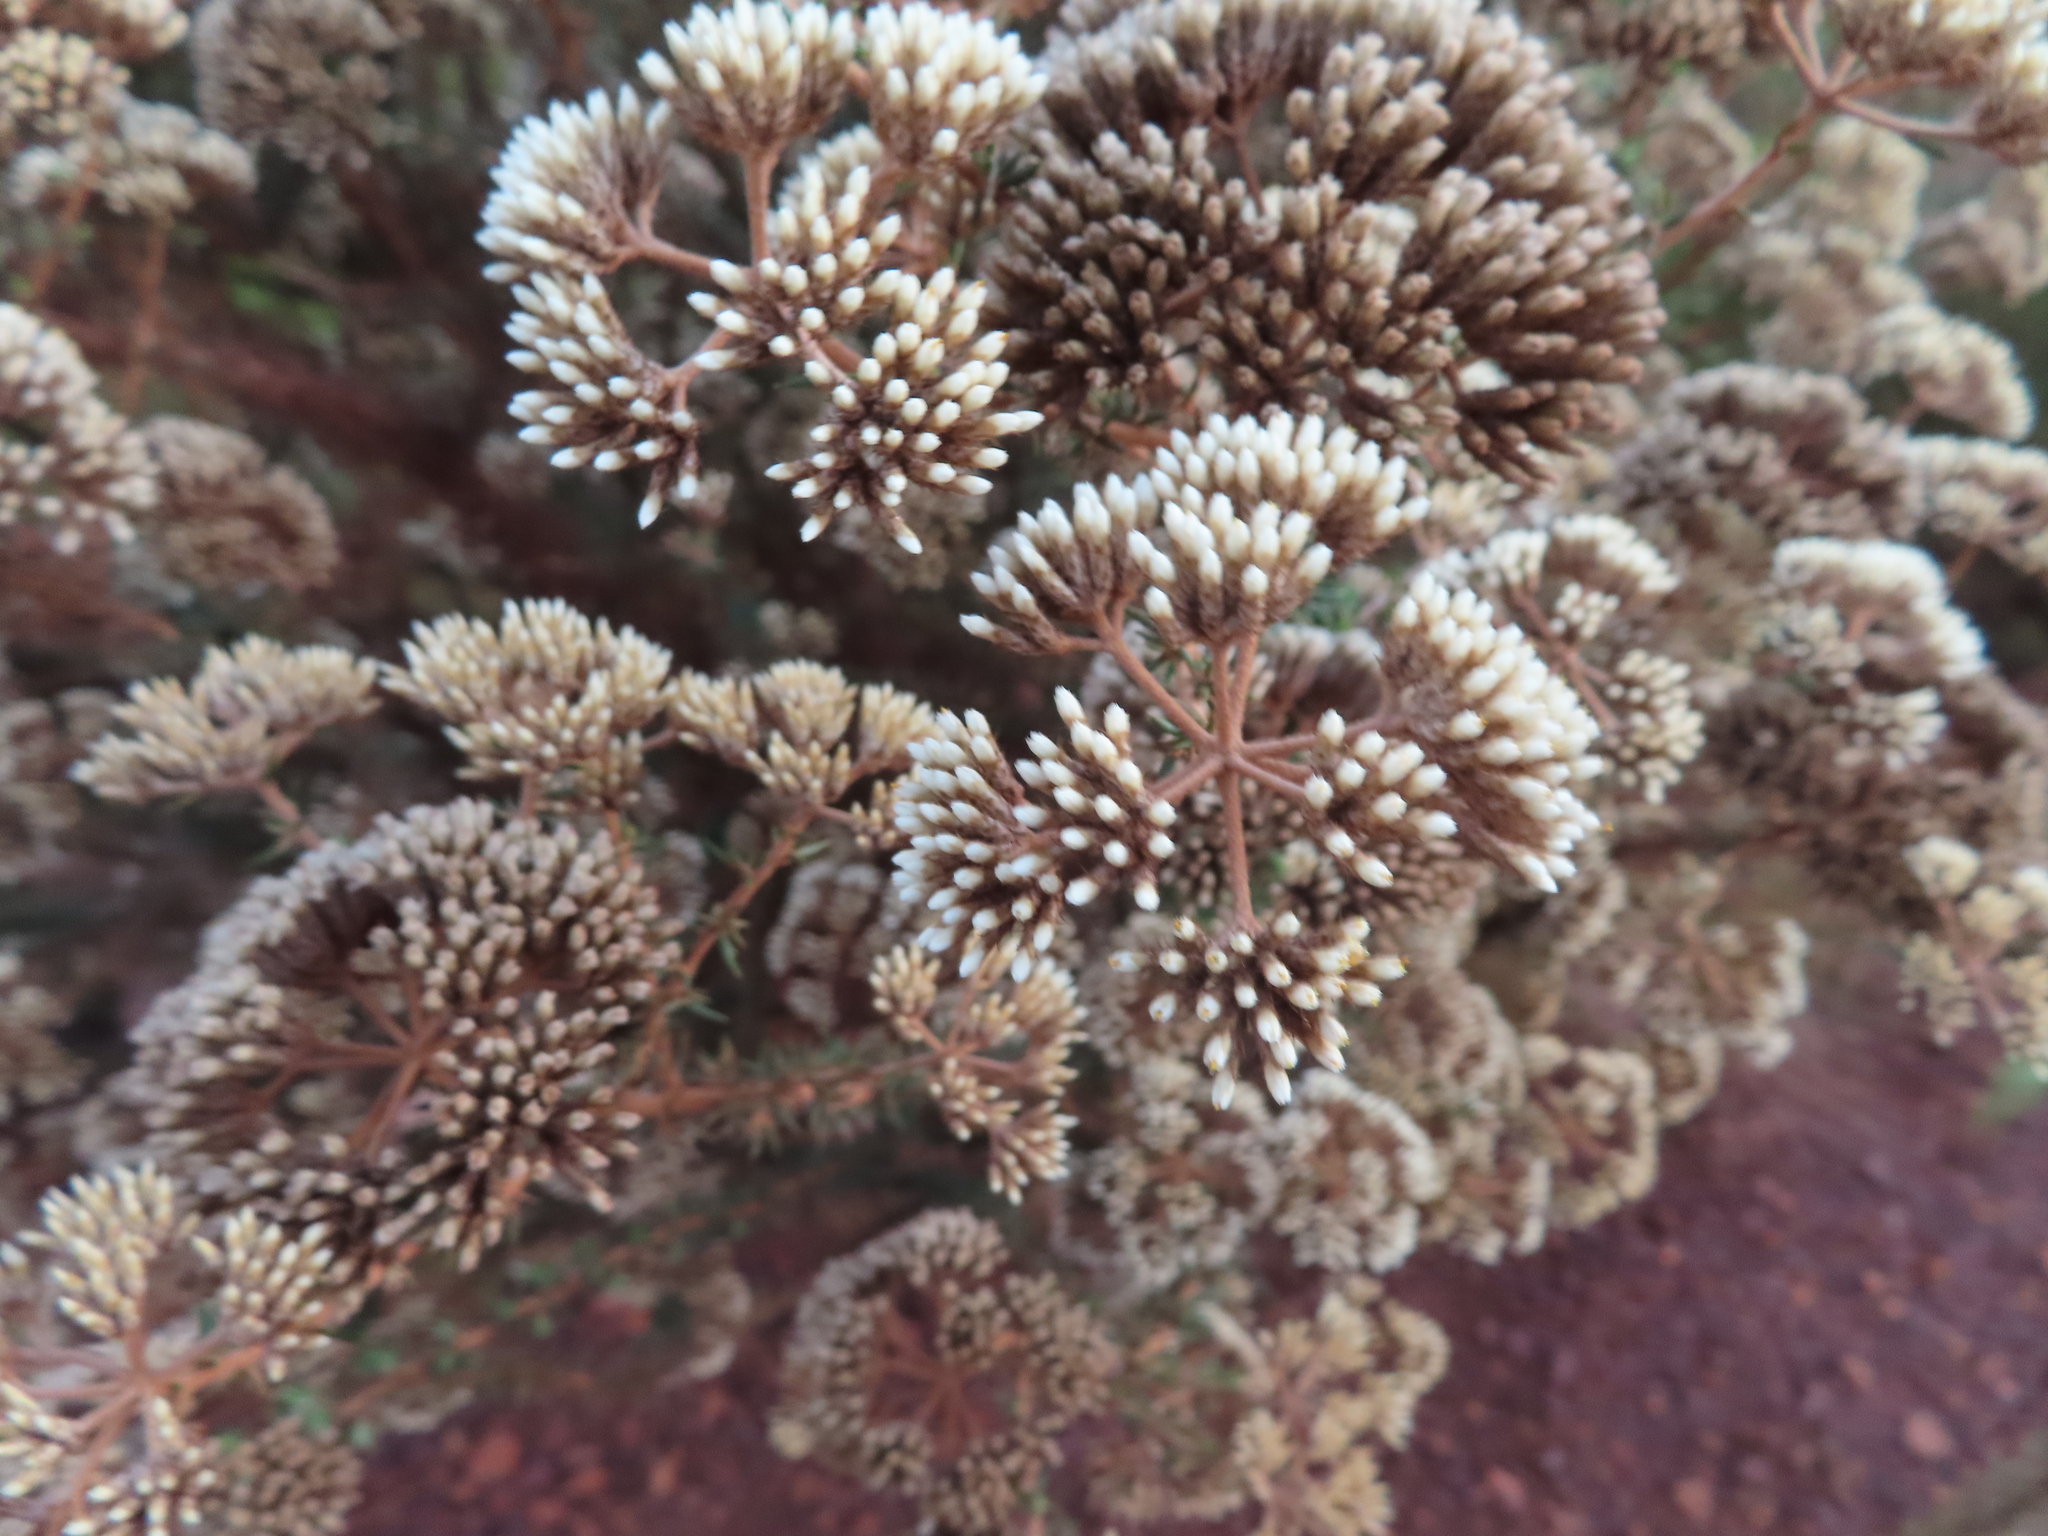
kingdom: Plantae
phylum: Tracheophyta
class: Magnoliopsida
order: Asterales
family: Asteraceae
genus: Metalasia
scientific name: Metalasia densa
